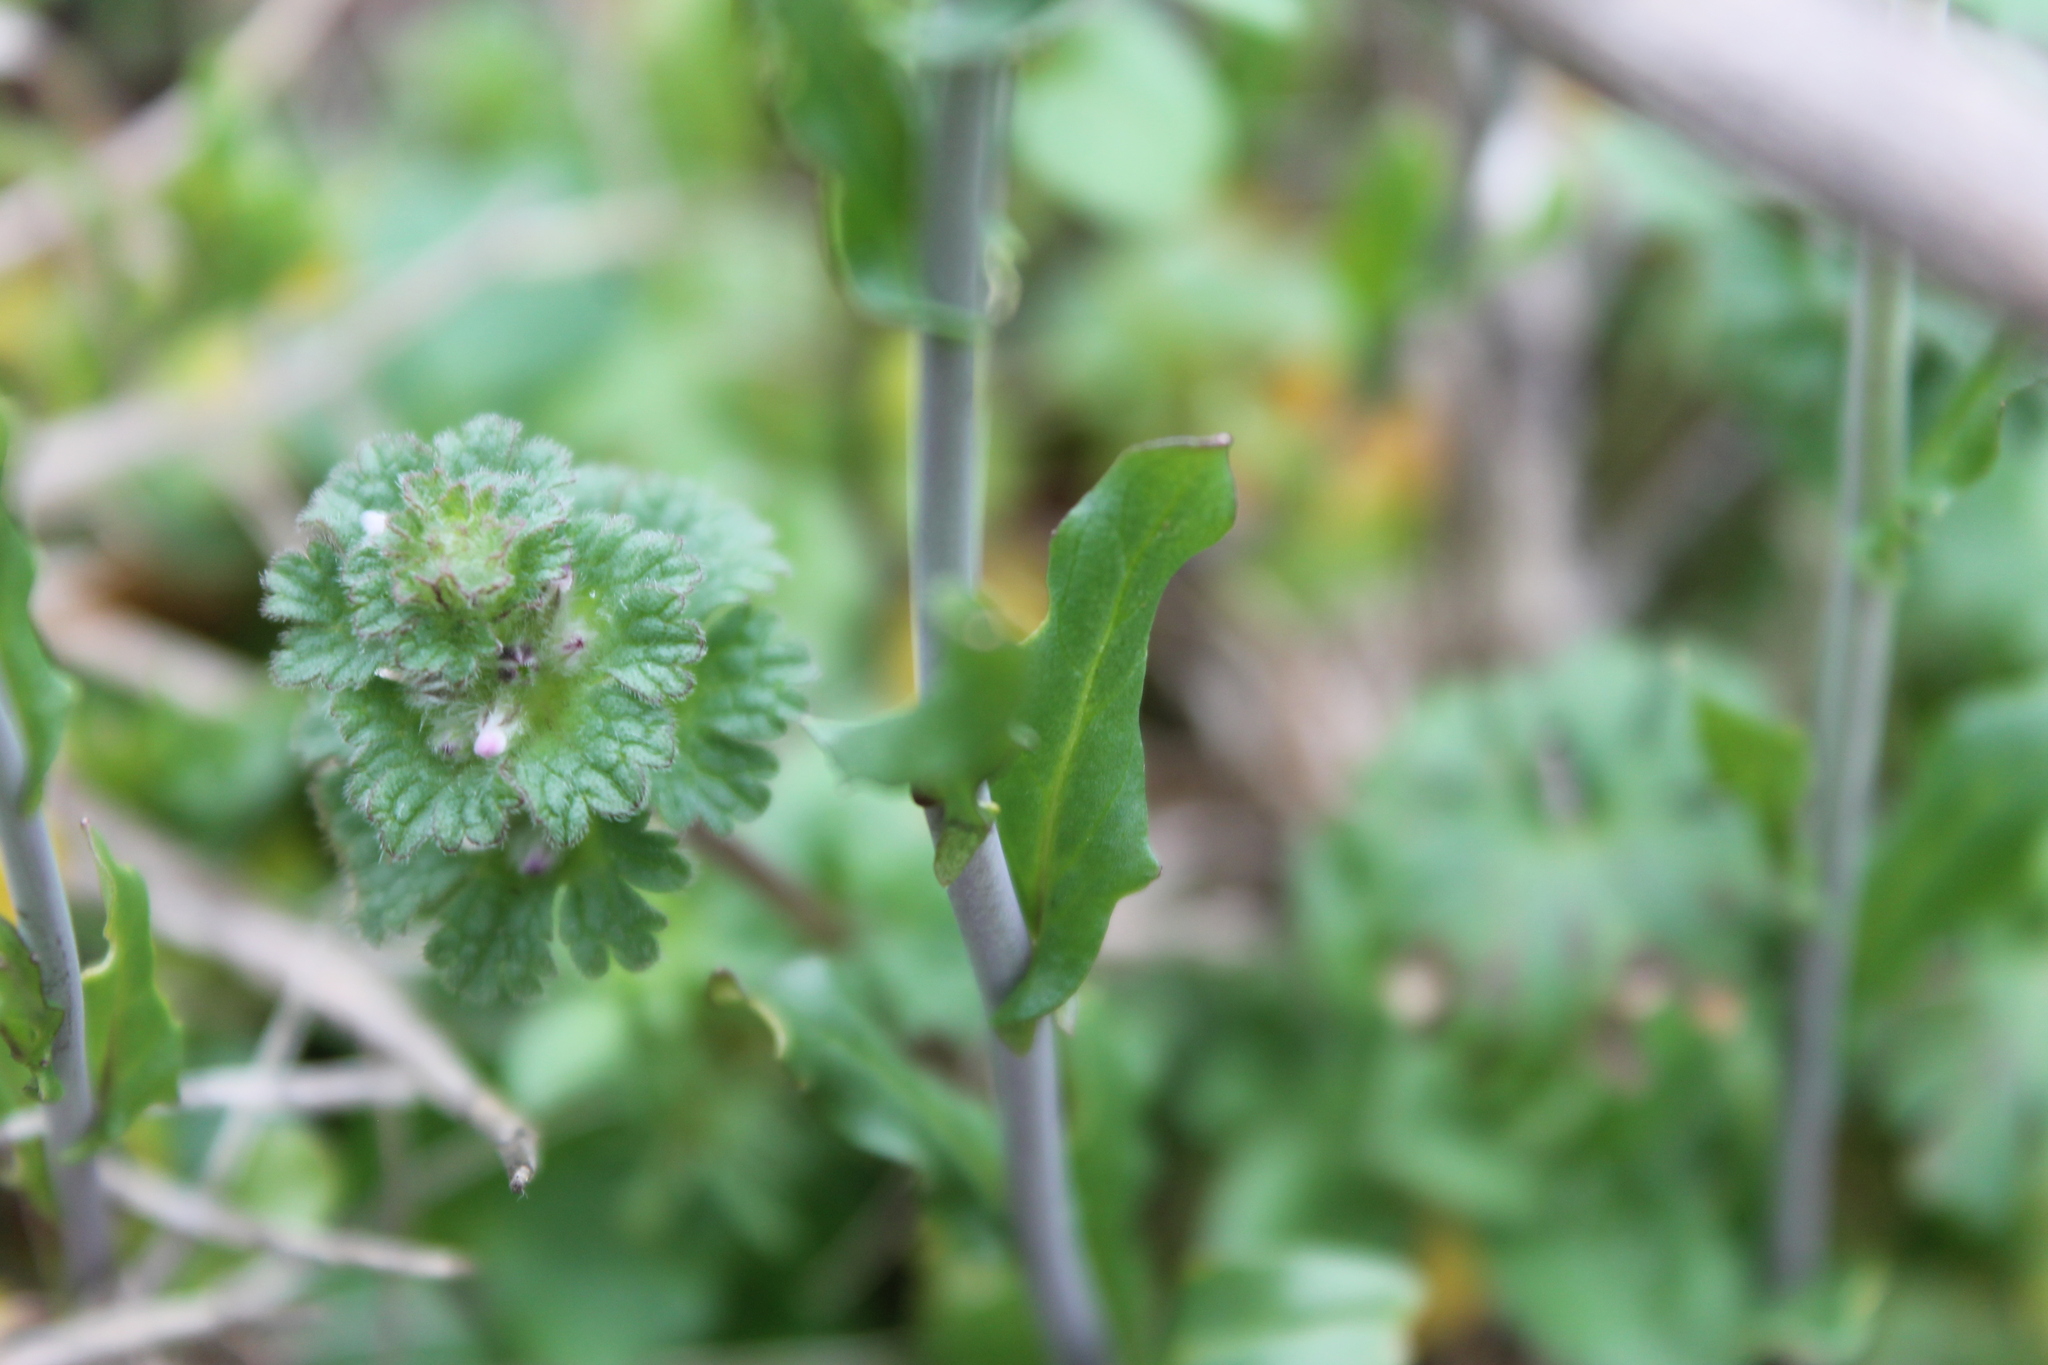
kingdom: Plantae
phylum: Tracheophyta
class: Magnoliopsida
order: Brassicales
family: Brassicaceae
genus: Mummenhoffia
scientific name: Mummenhoffia alliacea
